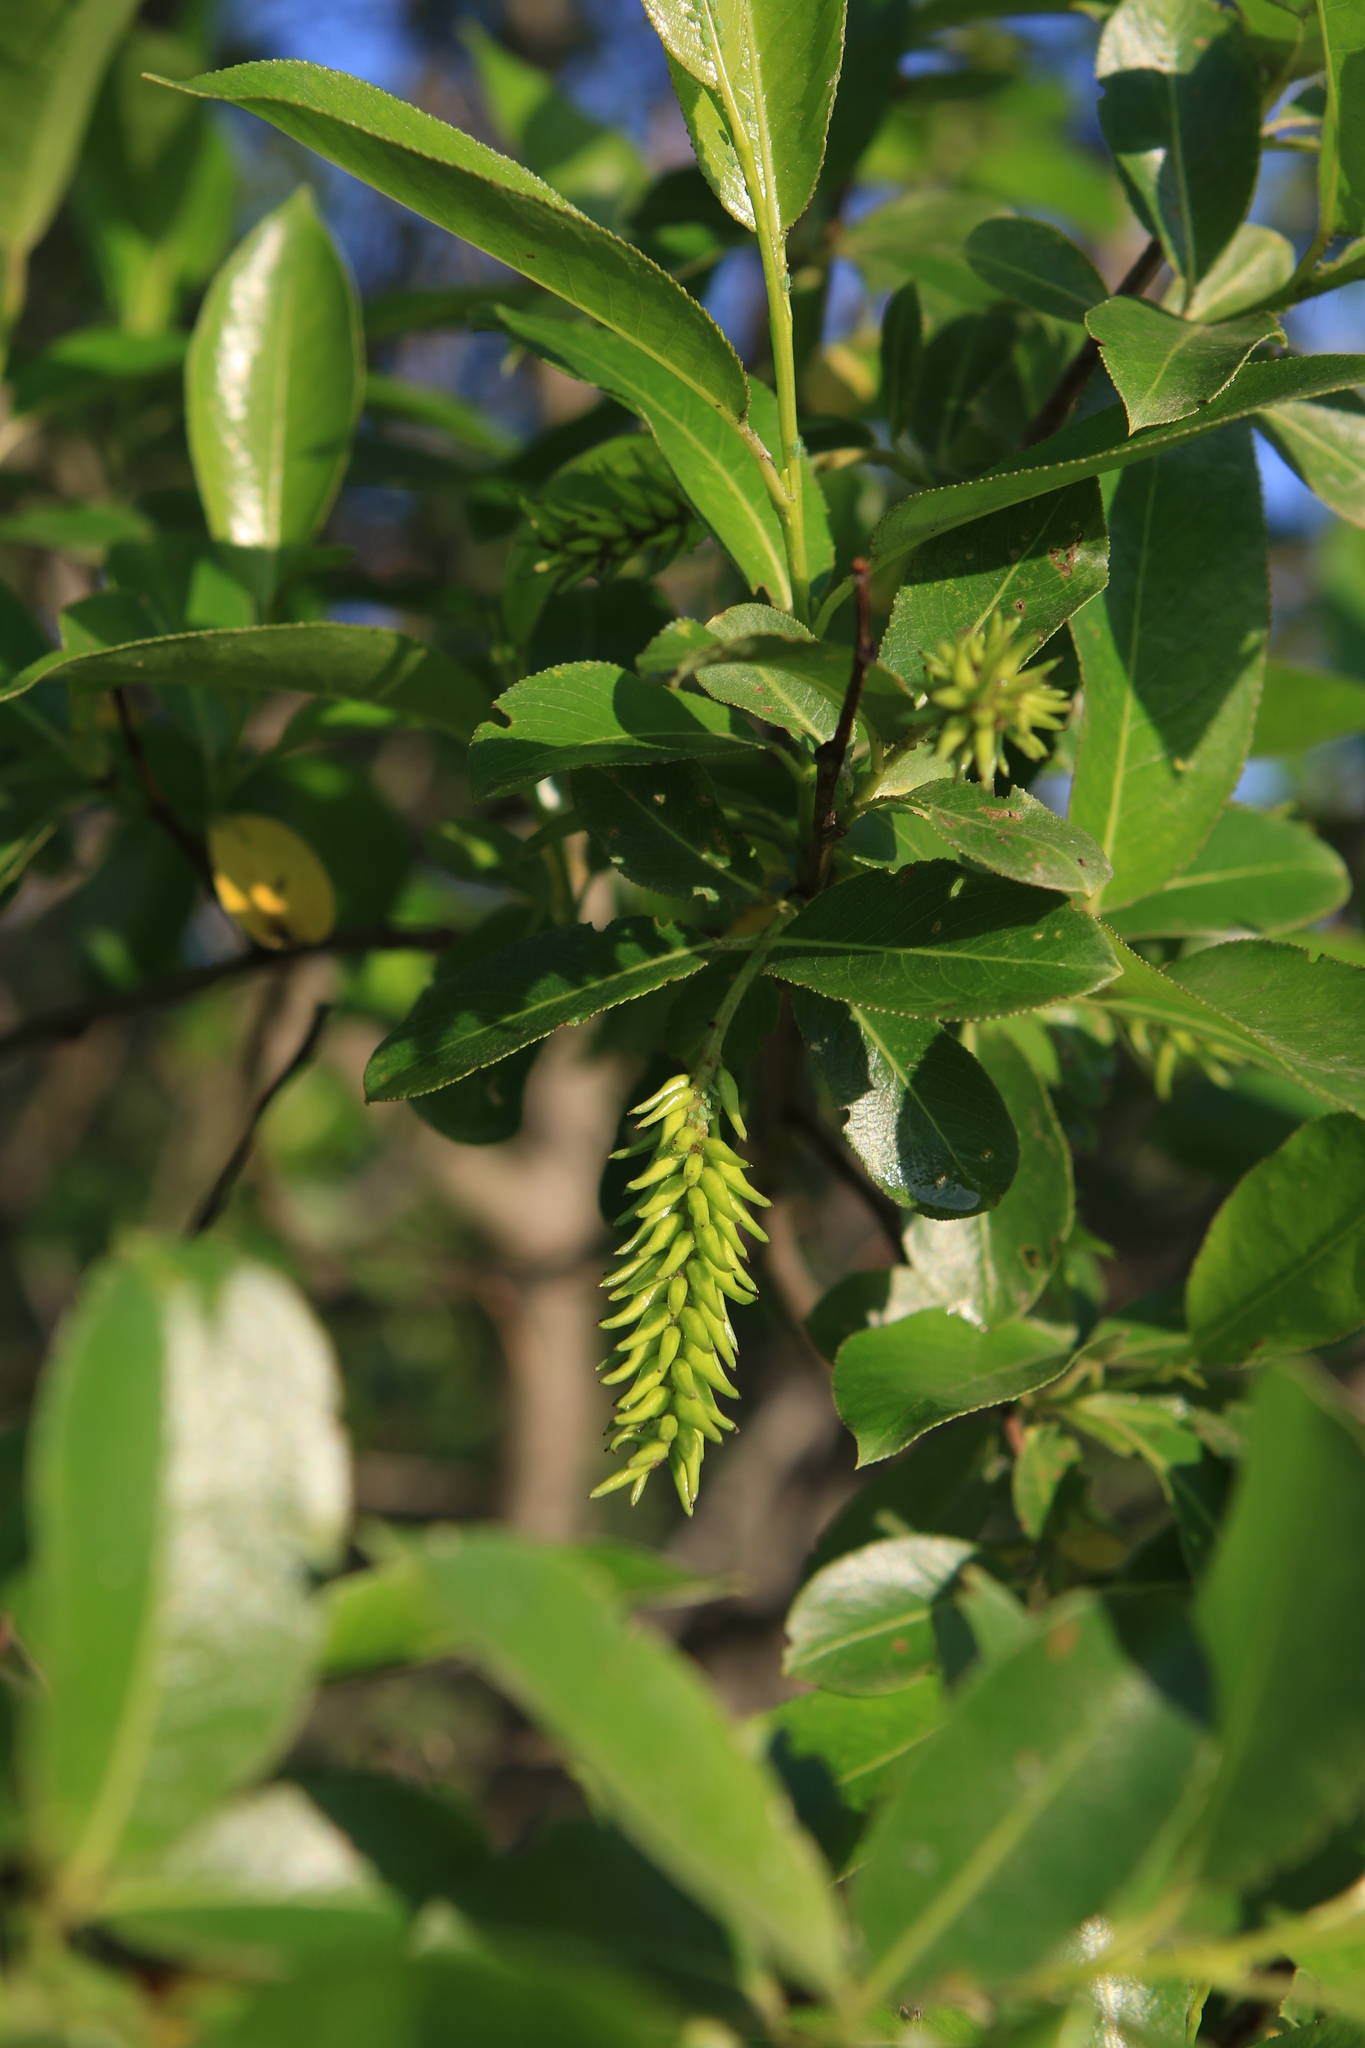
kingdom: Plantae
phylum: Tracheophyta
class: Magnoliopsida
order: Malpighiales
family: Salicaceae
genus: Salix
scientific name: Salix pentandra
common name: Bay willow
